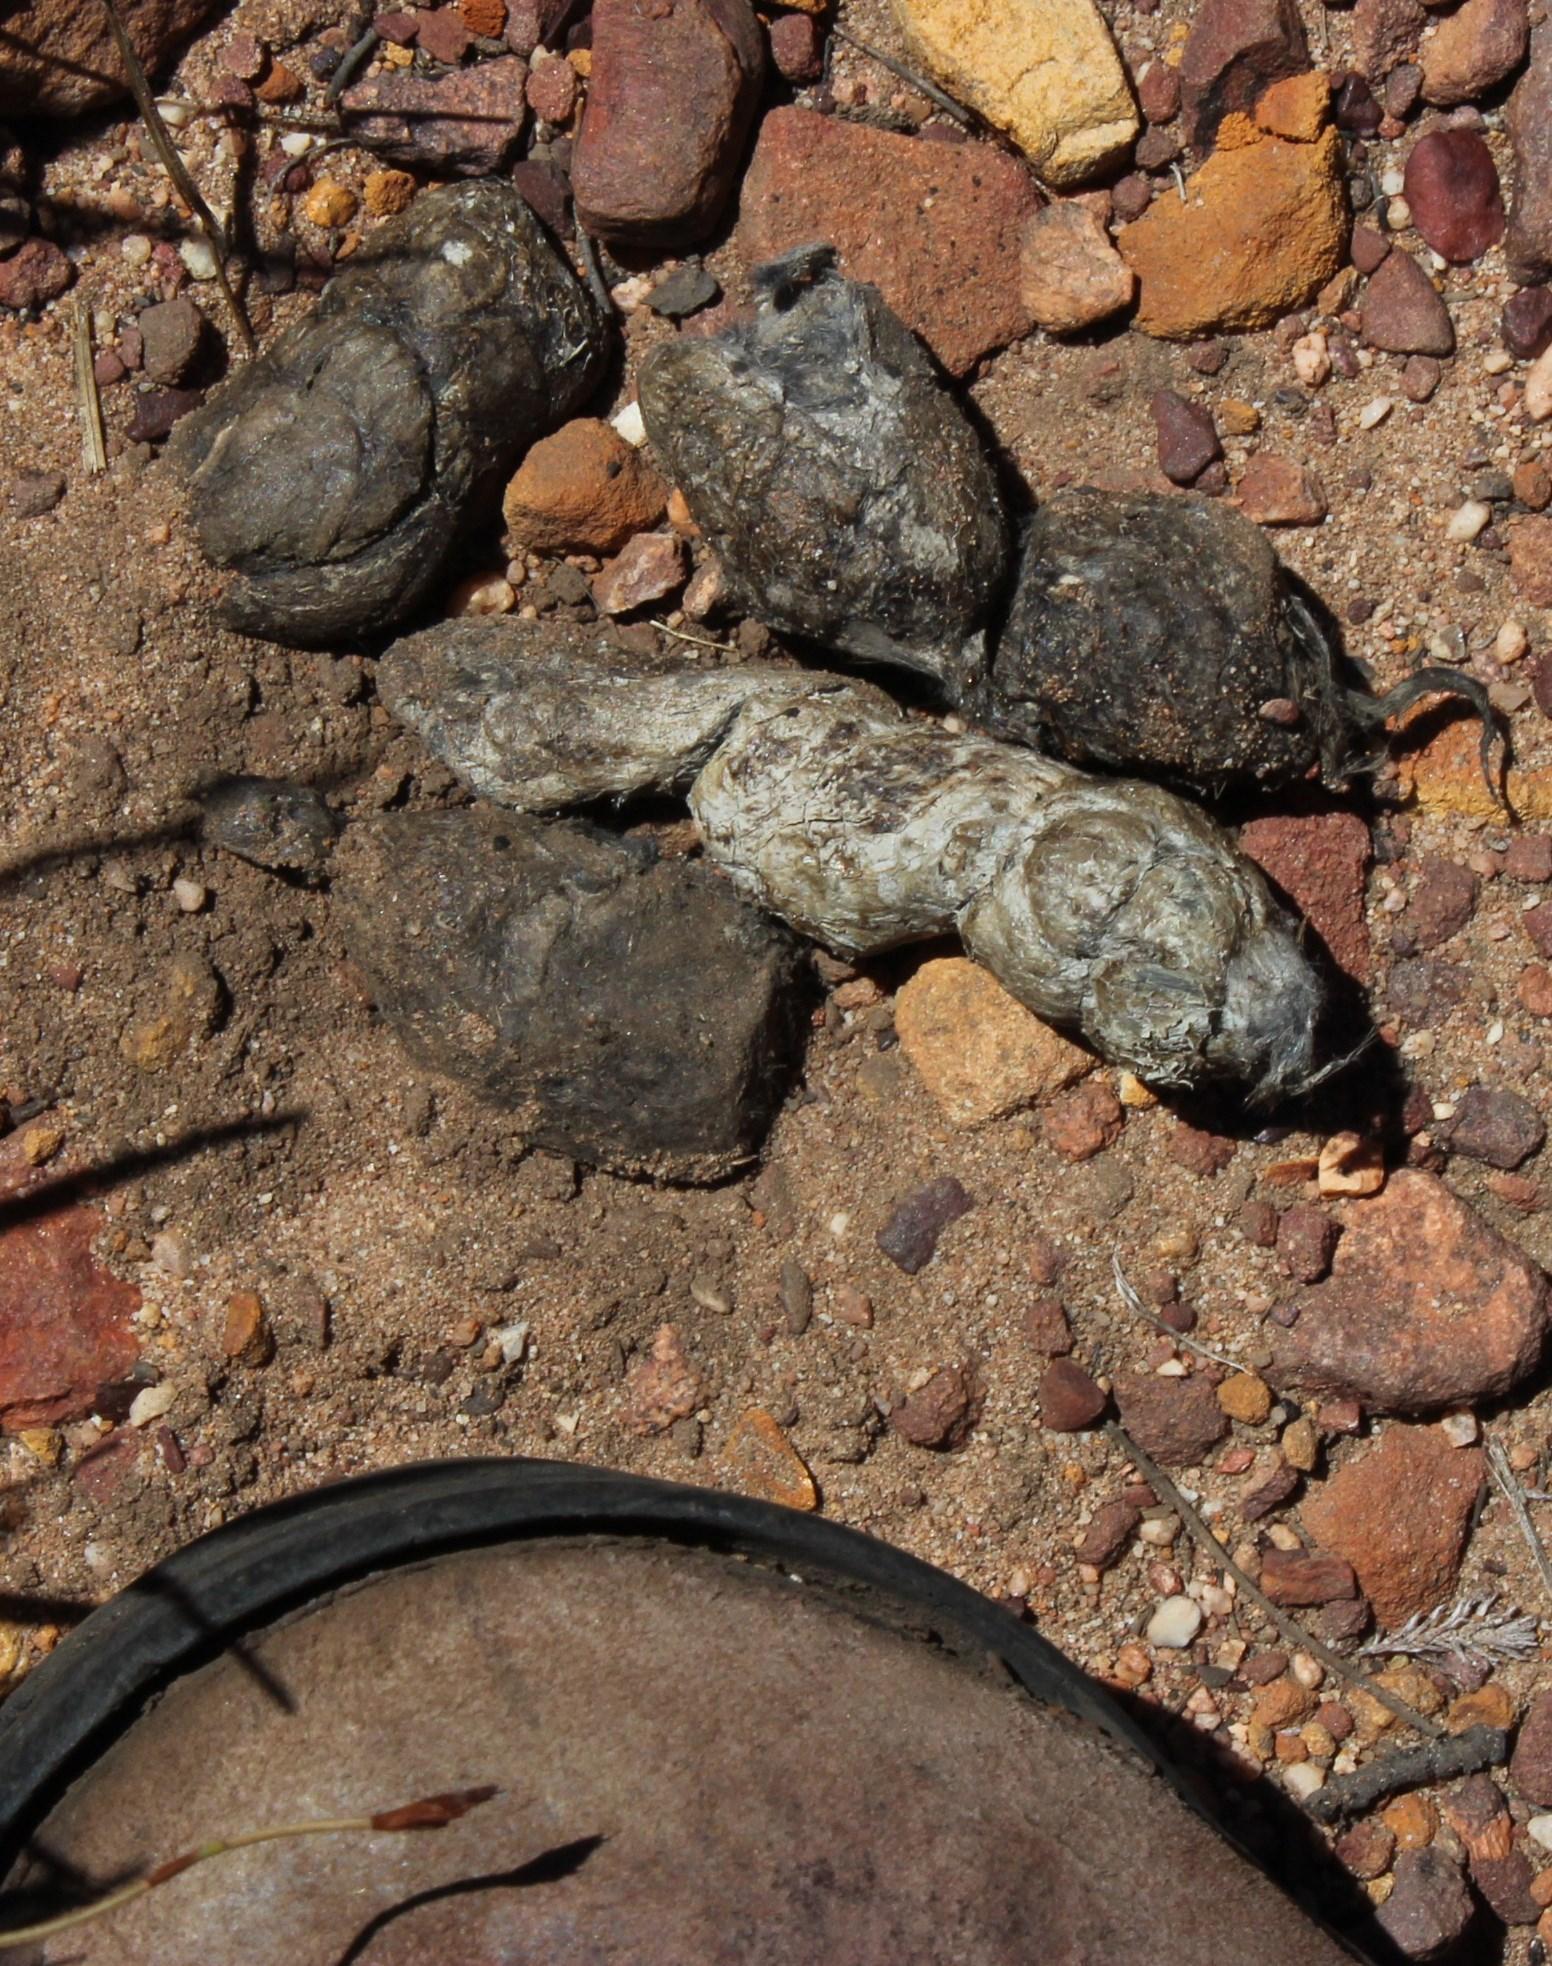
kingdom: Animalia
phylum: Chordata
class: Mammalia
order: Carnivora
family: Felidae
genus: Panthera
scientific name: Panthera pardus
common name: Leopard
